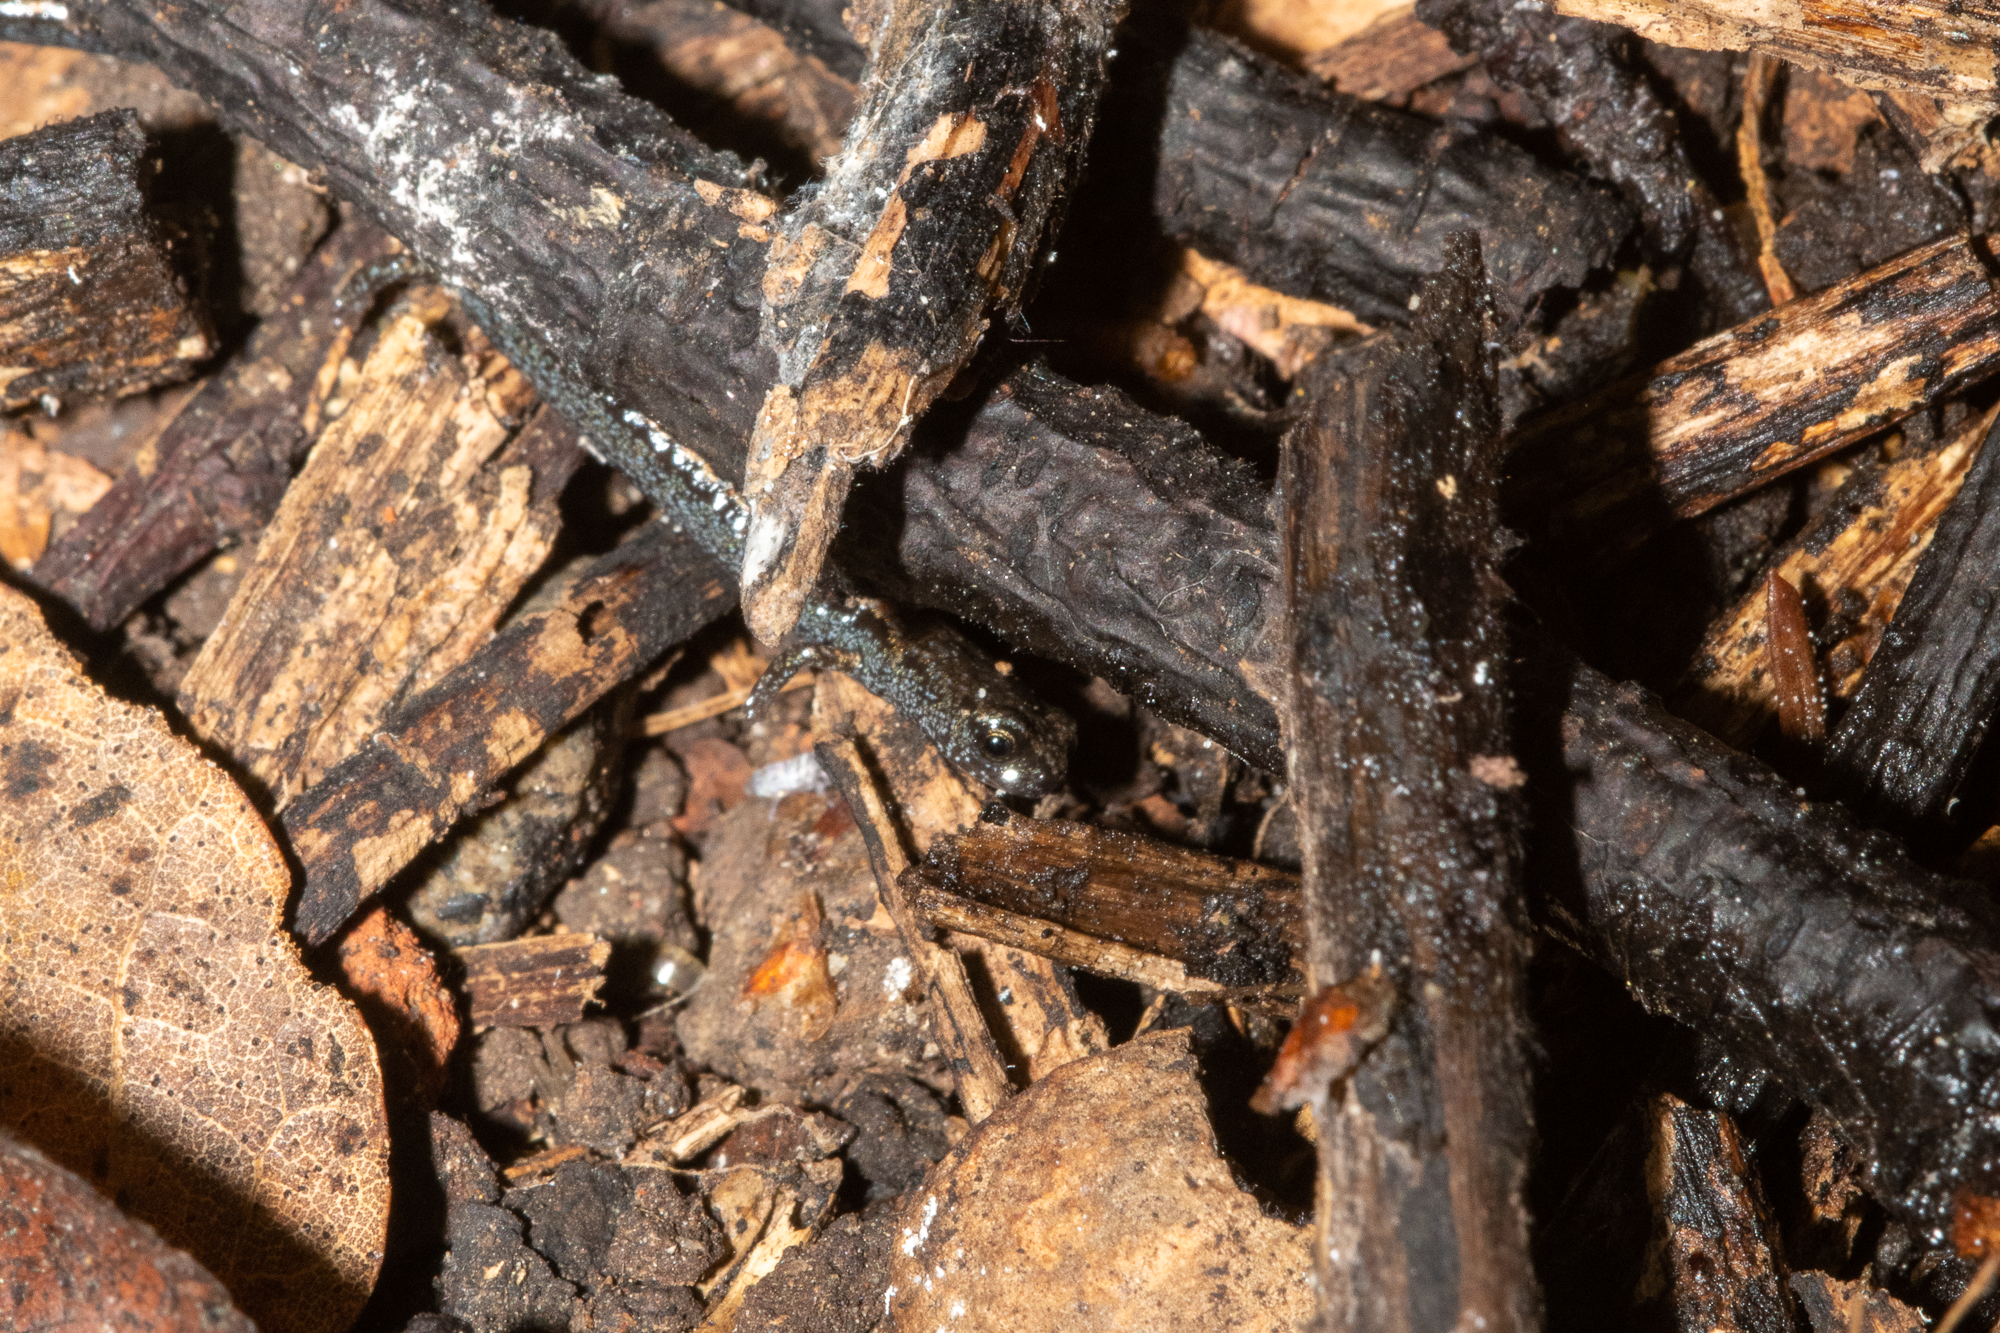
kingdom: Animalia
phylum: Chordata
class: Amphibia
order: Caudata
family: Plethodontidae
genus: Batrachoseps
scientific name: Batrachoseps attenuatus
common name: California slender salamander
